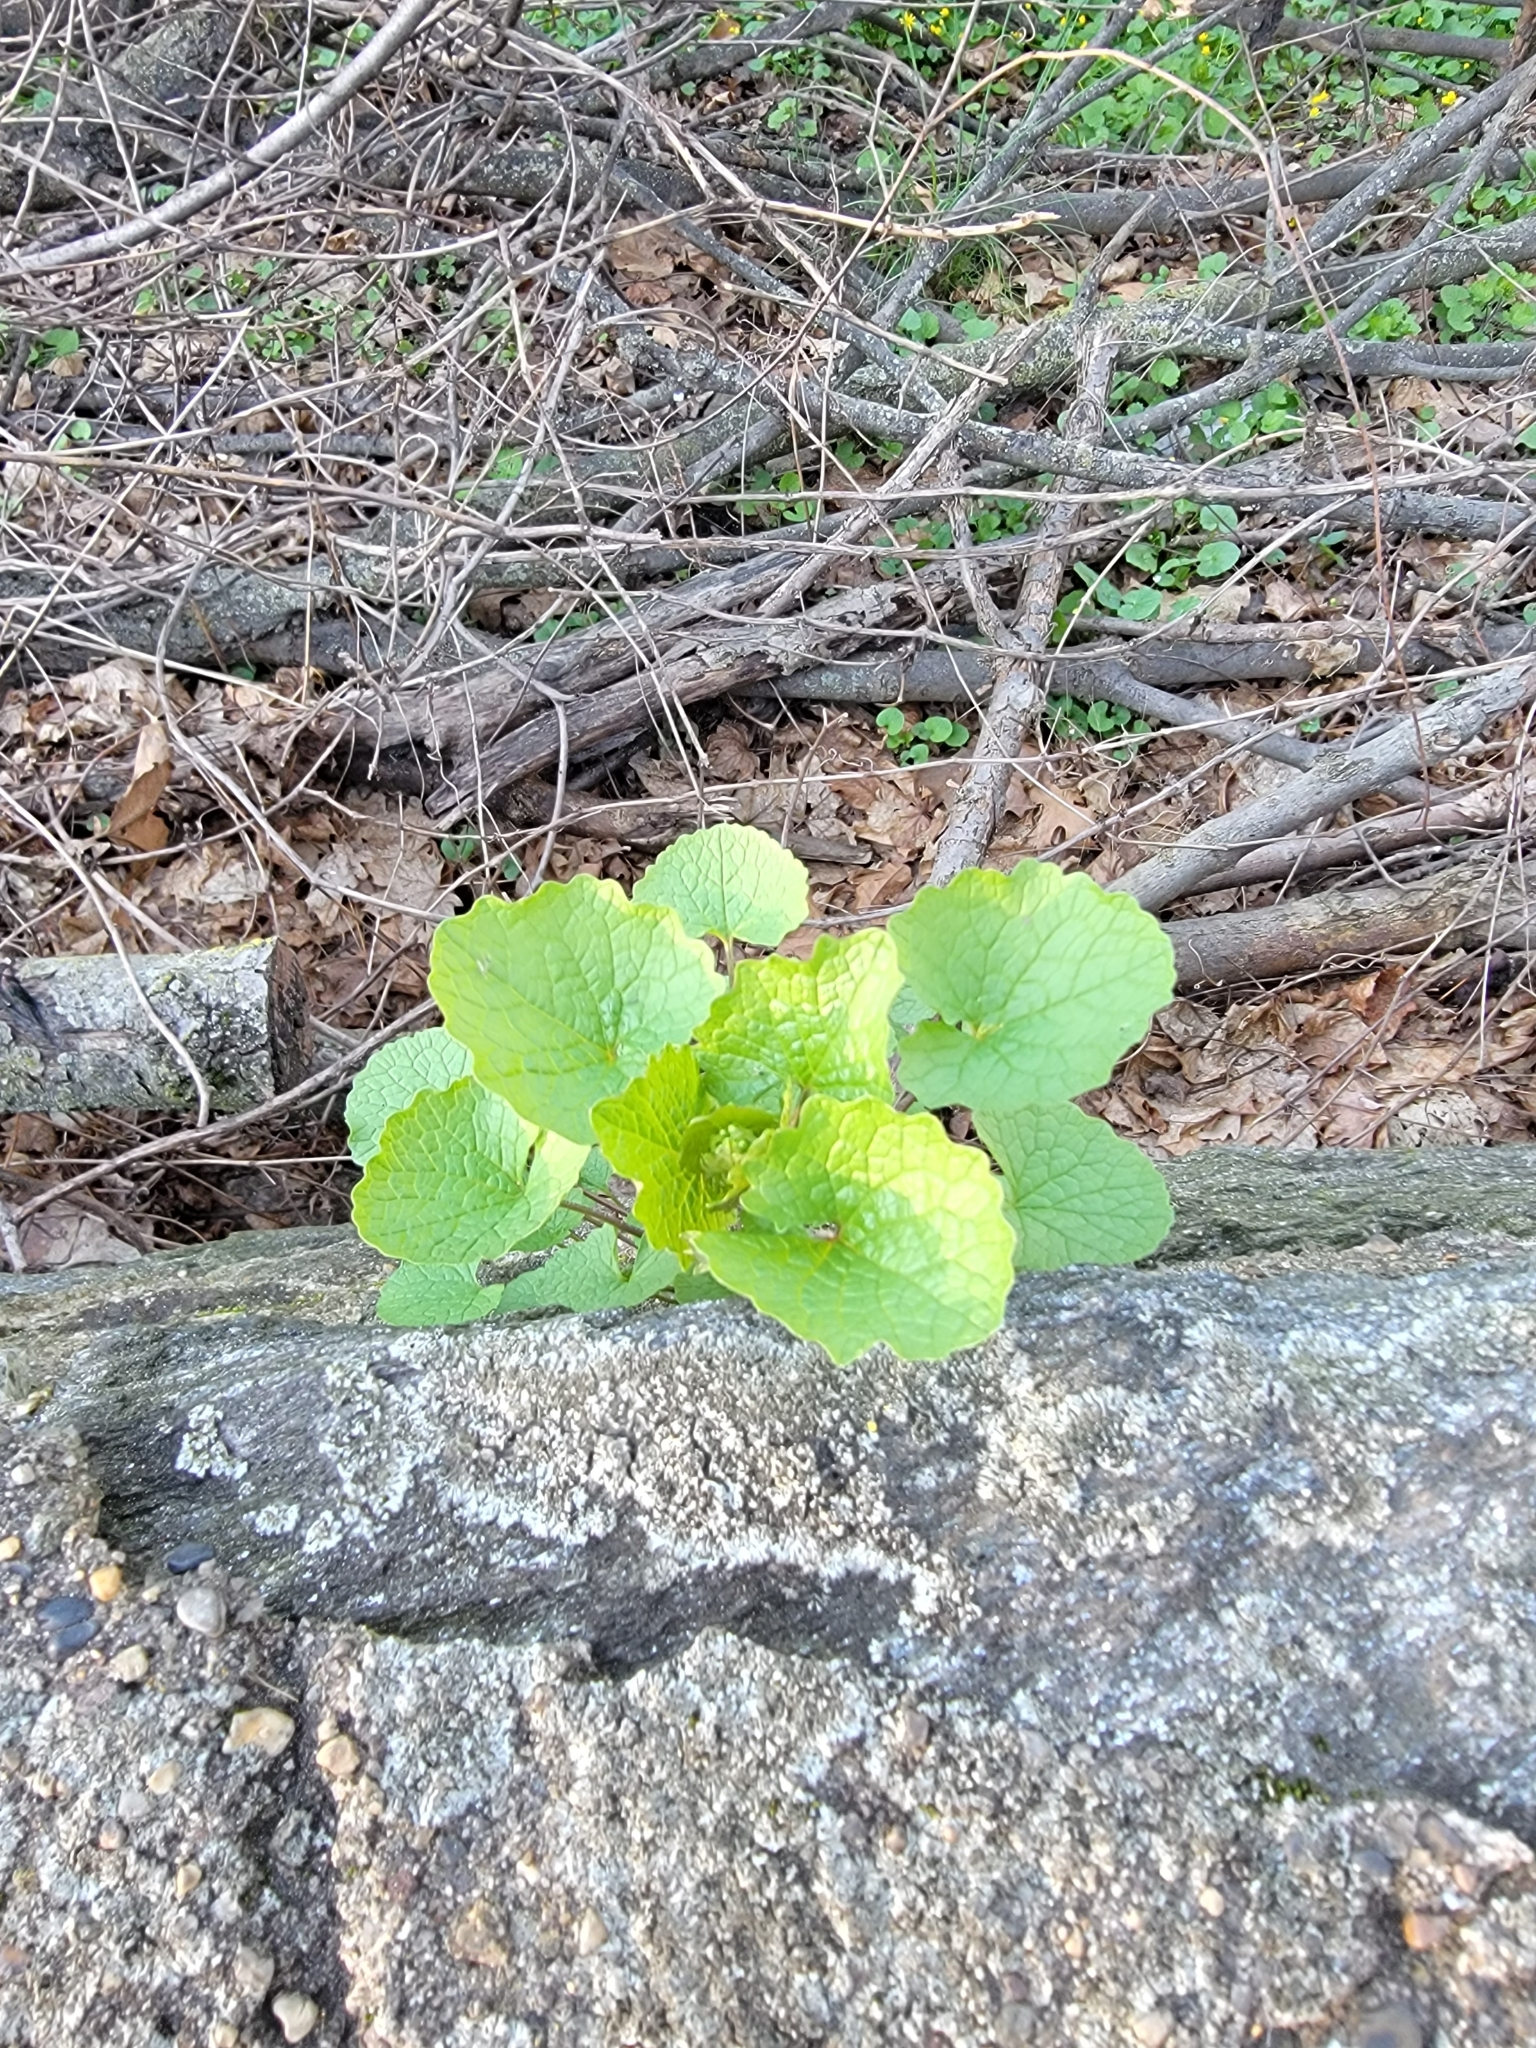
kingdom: Plantae
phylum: Tracheophyta
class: Magnoliopsida
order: Brassicales
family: Brassicaceae
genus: Alliaria
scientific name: Alliaria petiolata
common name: Garlic mustard
